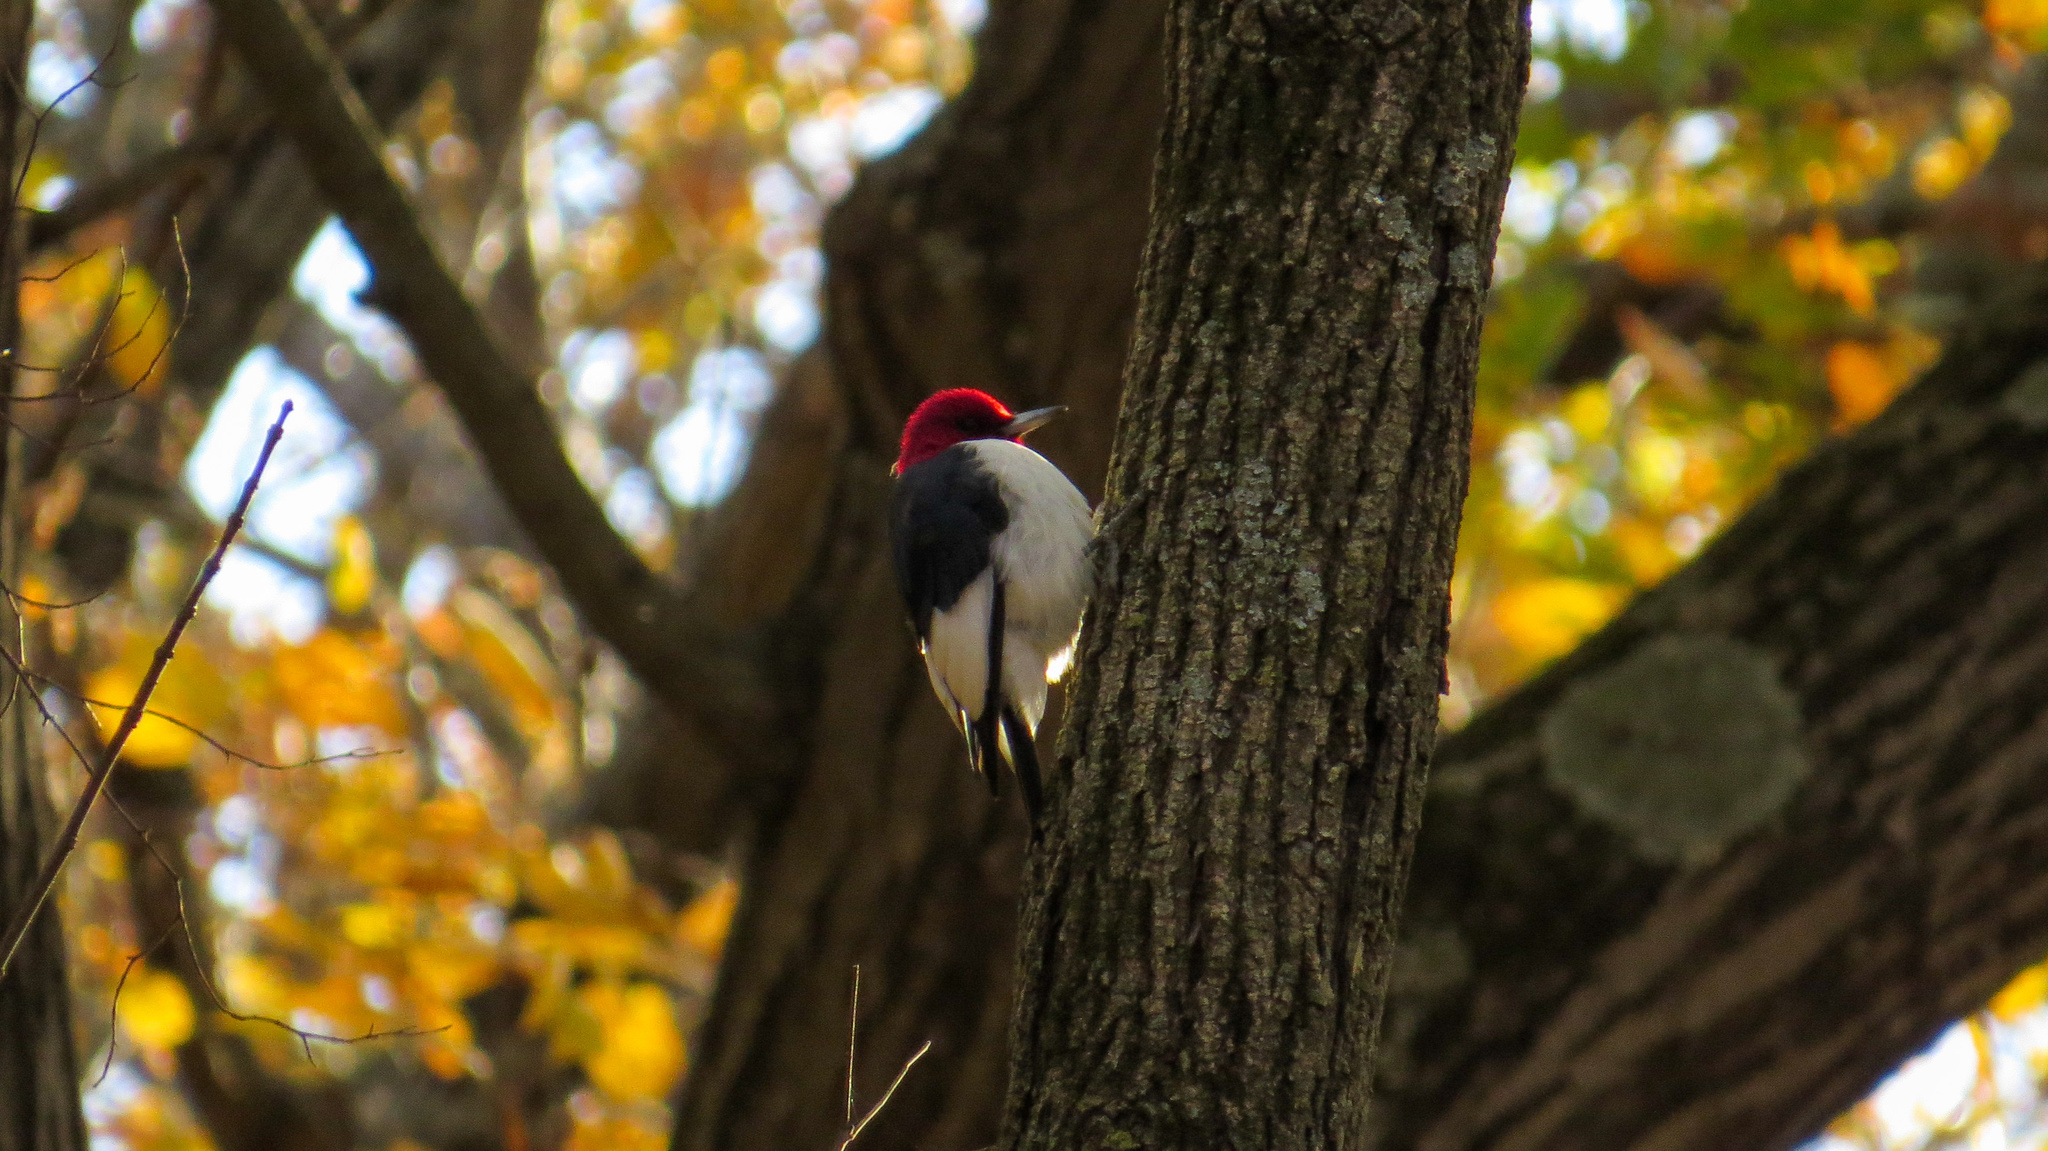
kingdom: Animalia
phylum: Chordata
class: Aves
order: Piciformes
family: Picidae
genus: Melanerpes
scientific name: Melanerpes erythrocephalus
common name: Red-headed woodpecker
